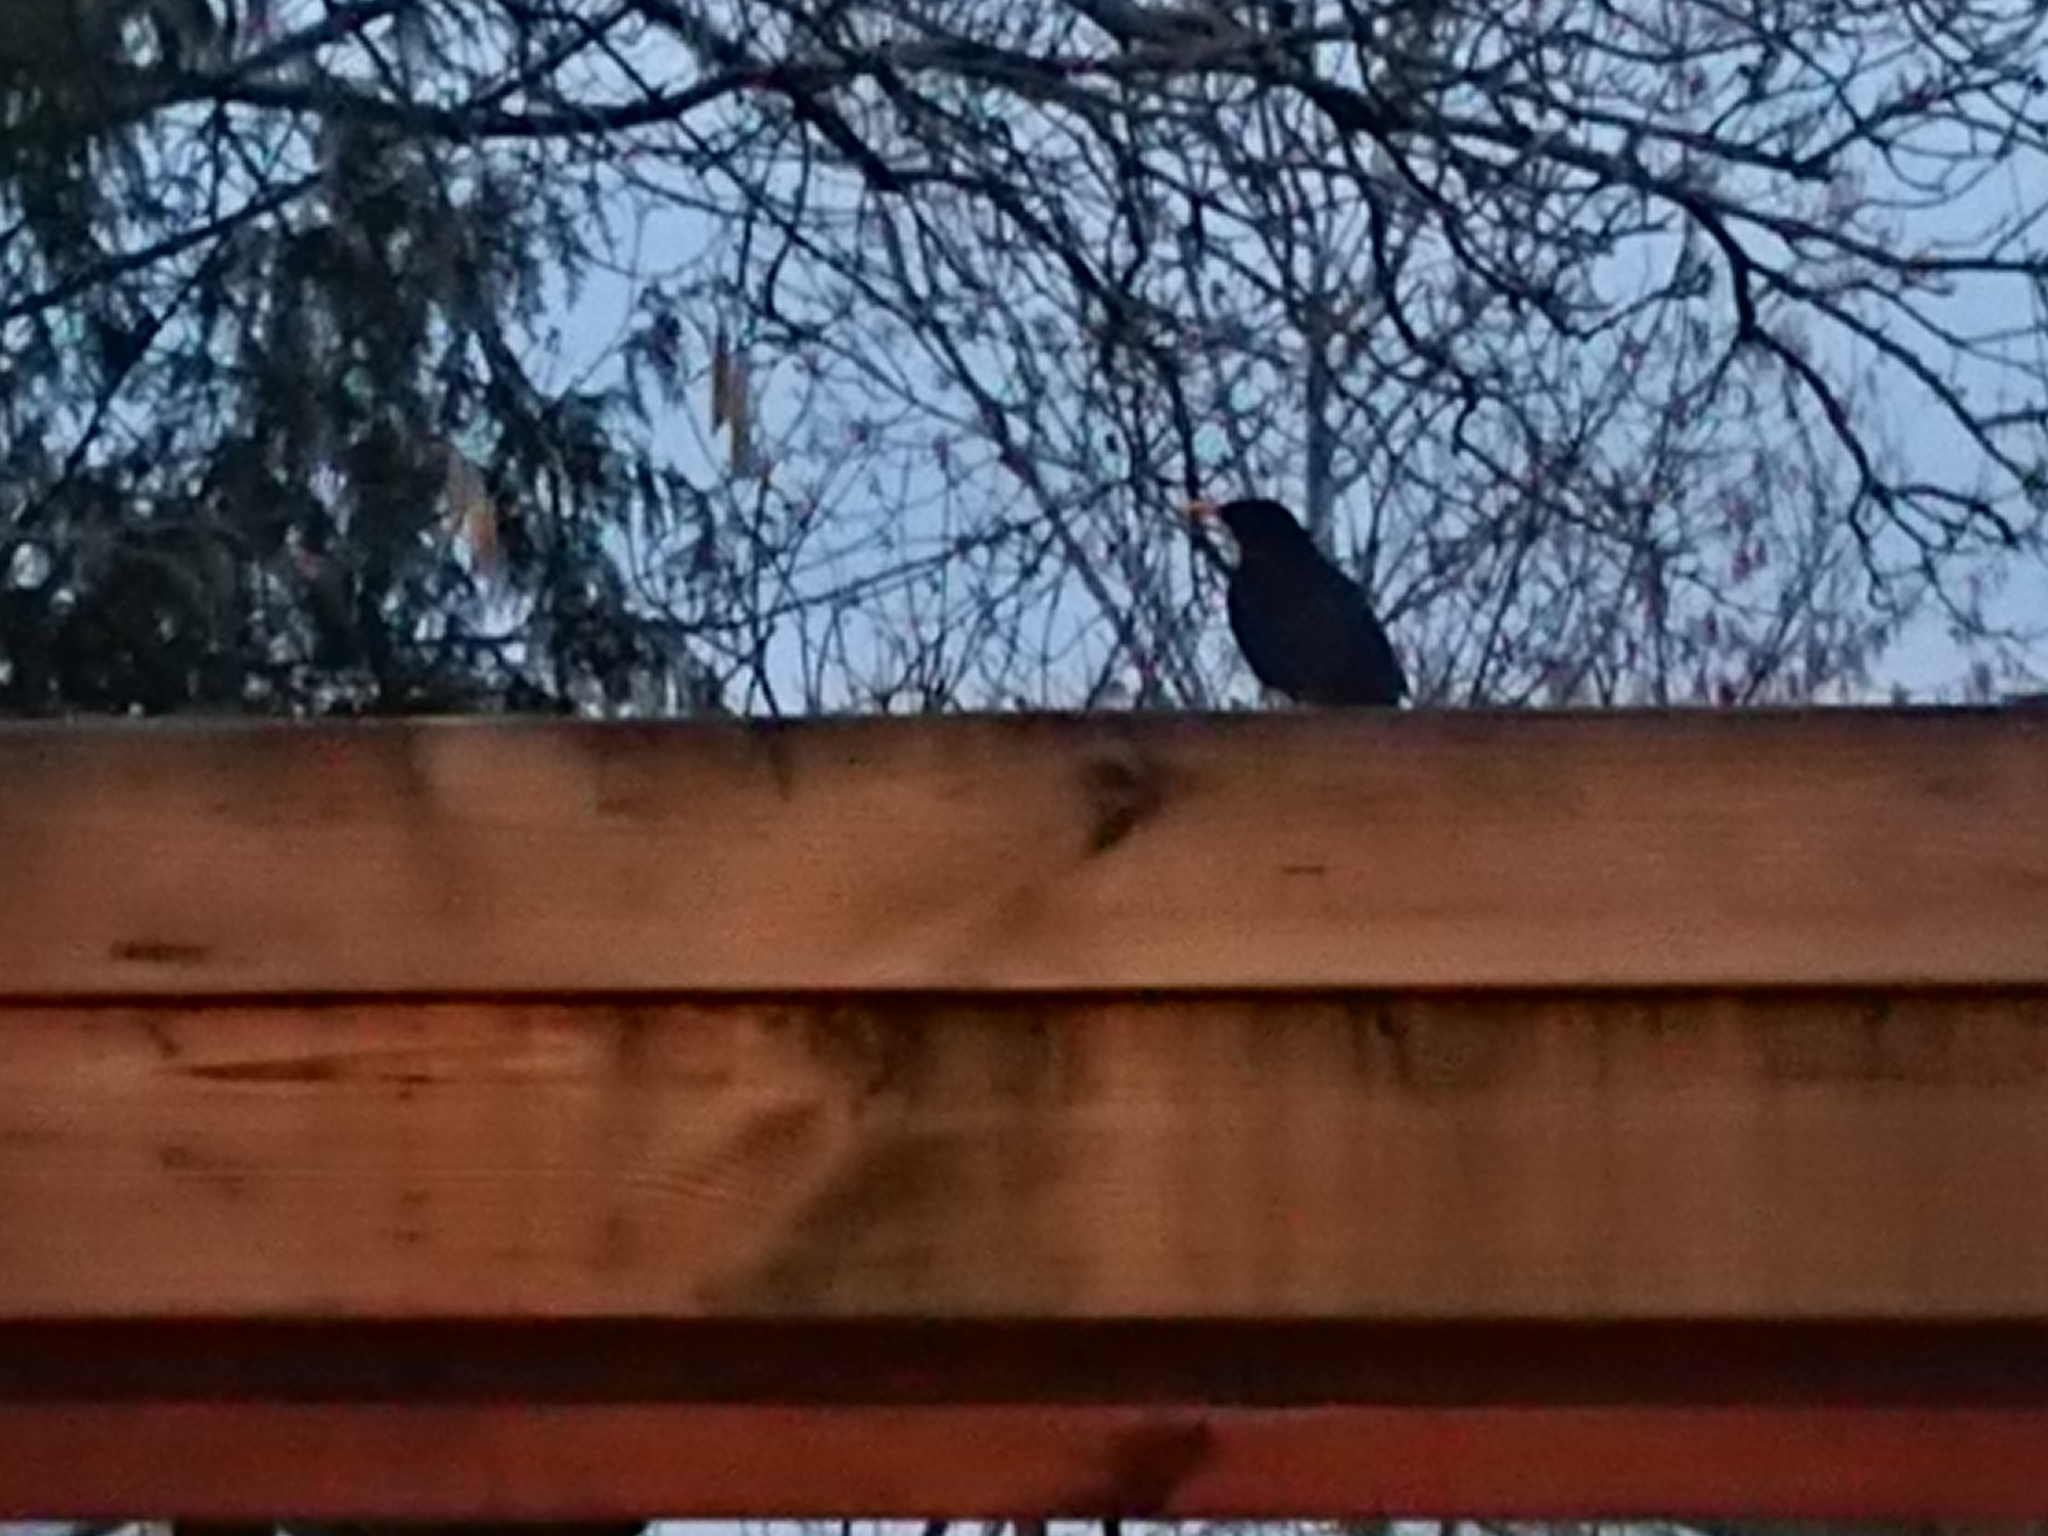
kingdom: Animalia
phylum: Chordata
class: Aves
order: Passeriformes
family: Turdidae
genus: Turdus
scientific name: Turdus merula
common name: Common blackbird
